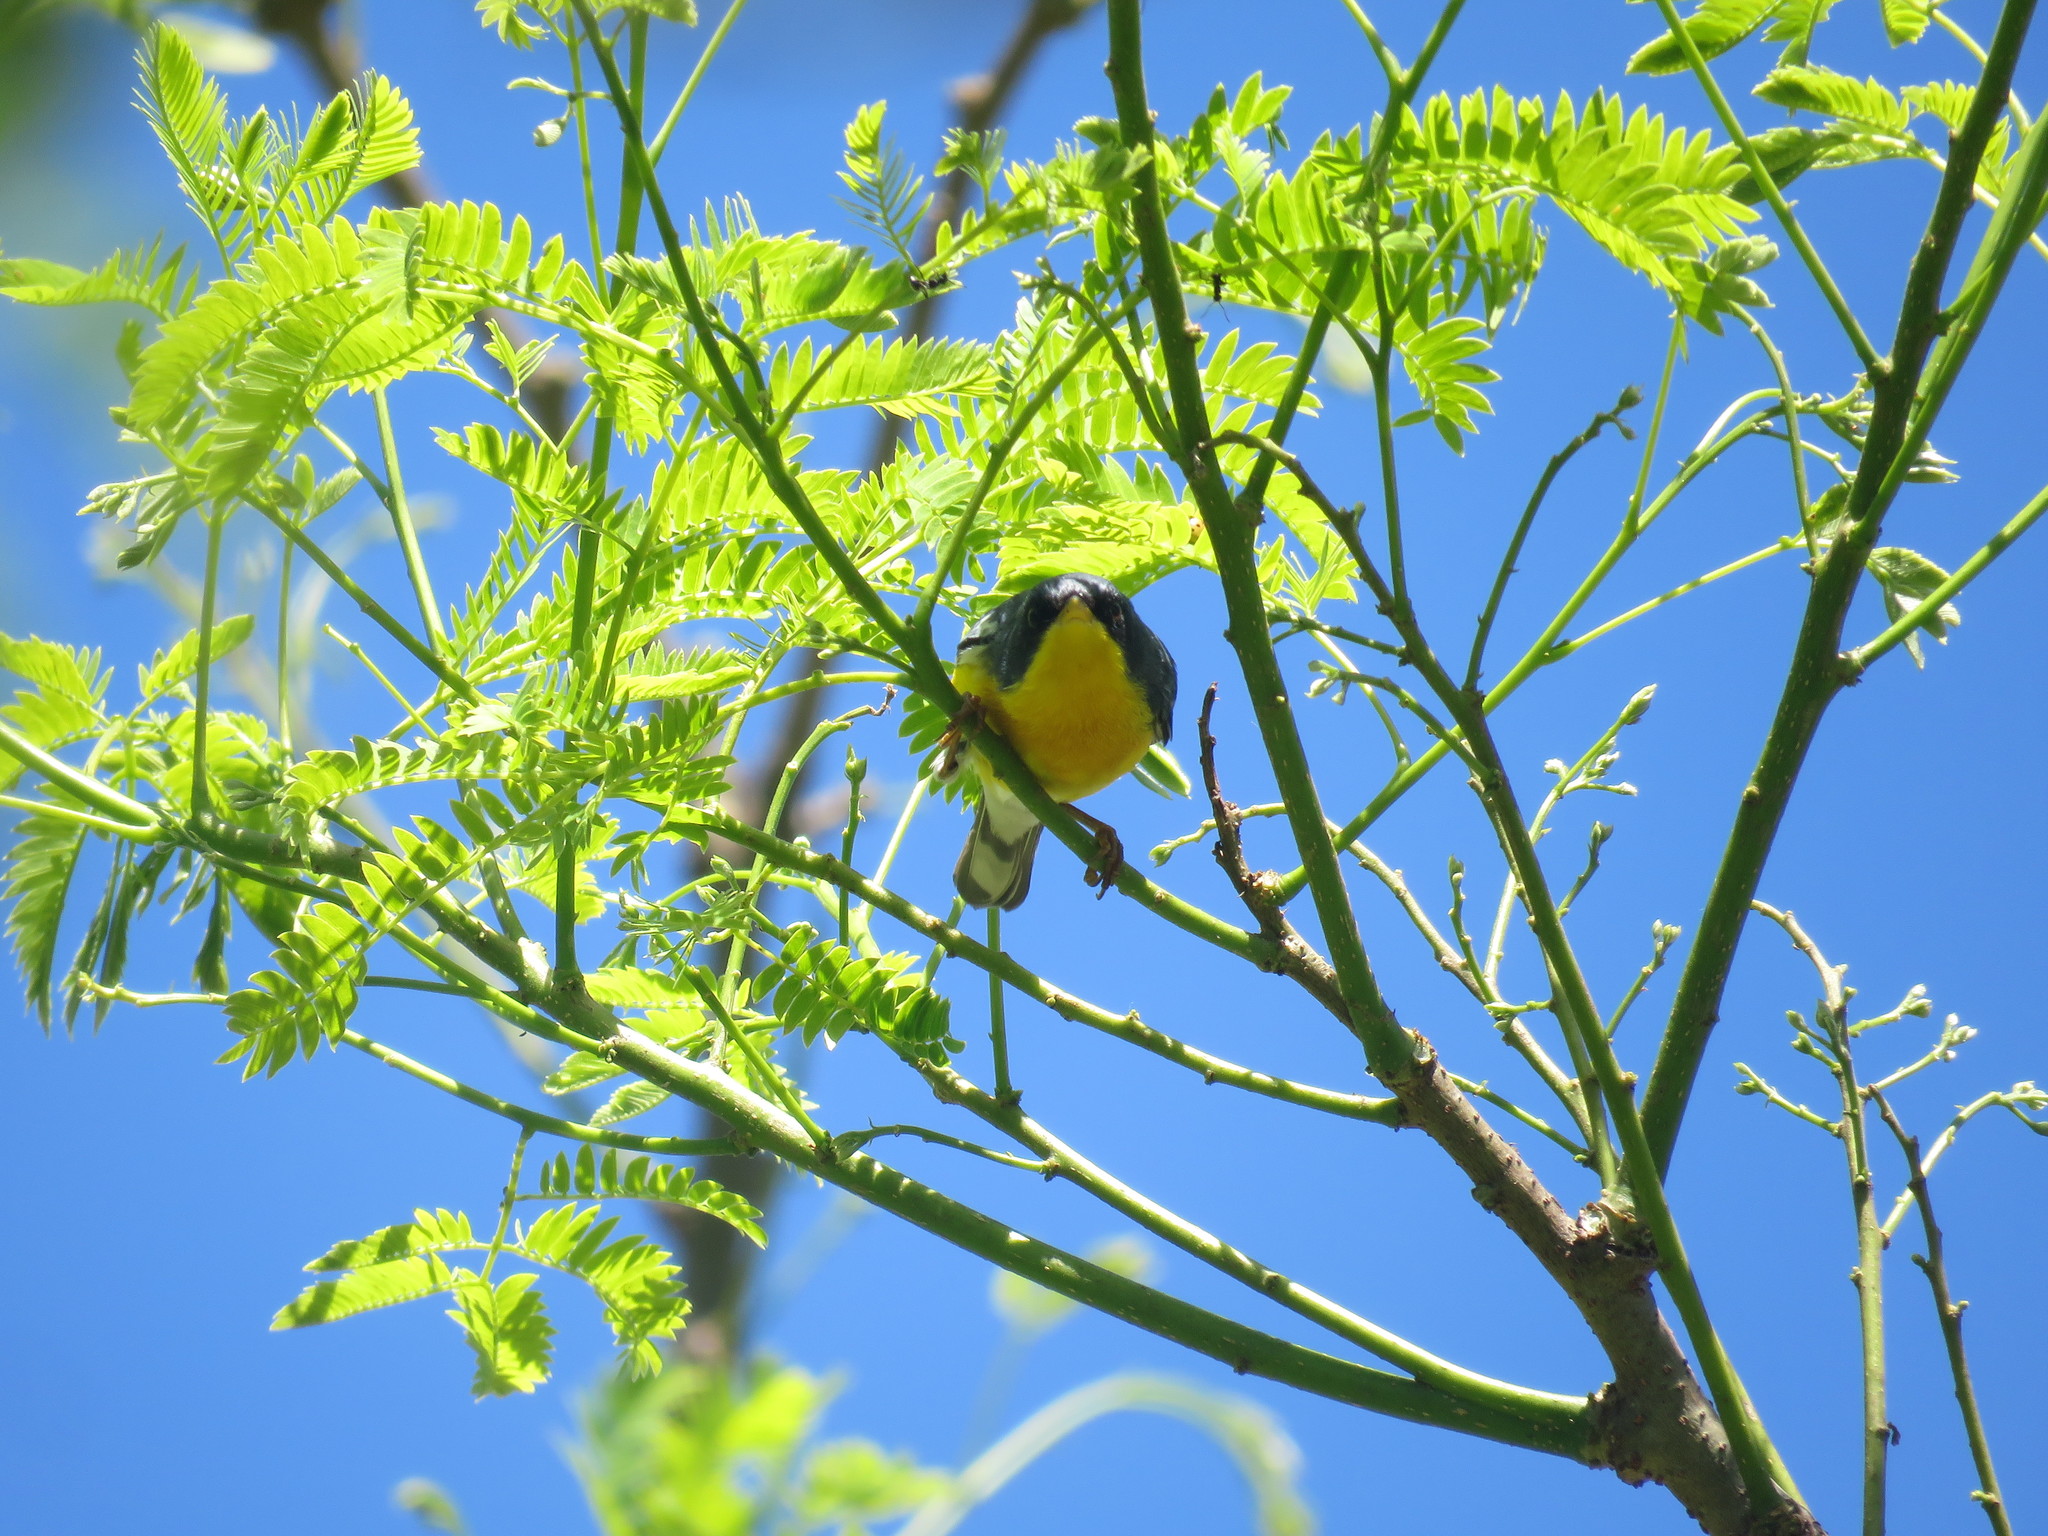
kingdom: Animalia
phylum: Chordata
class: Aves
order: Passeriformes
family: Parulidae
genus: Setophaga
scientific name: Setophaga pitiayumi
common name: Tropical parula
